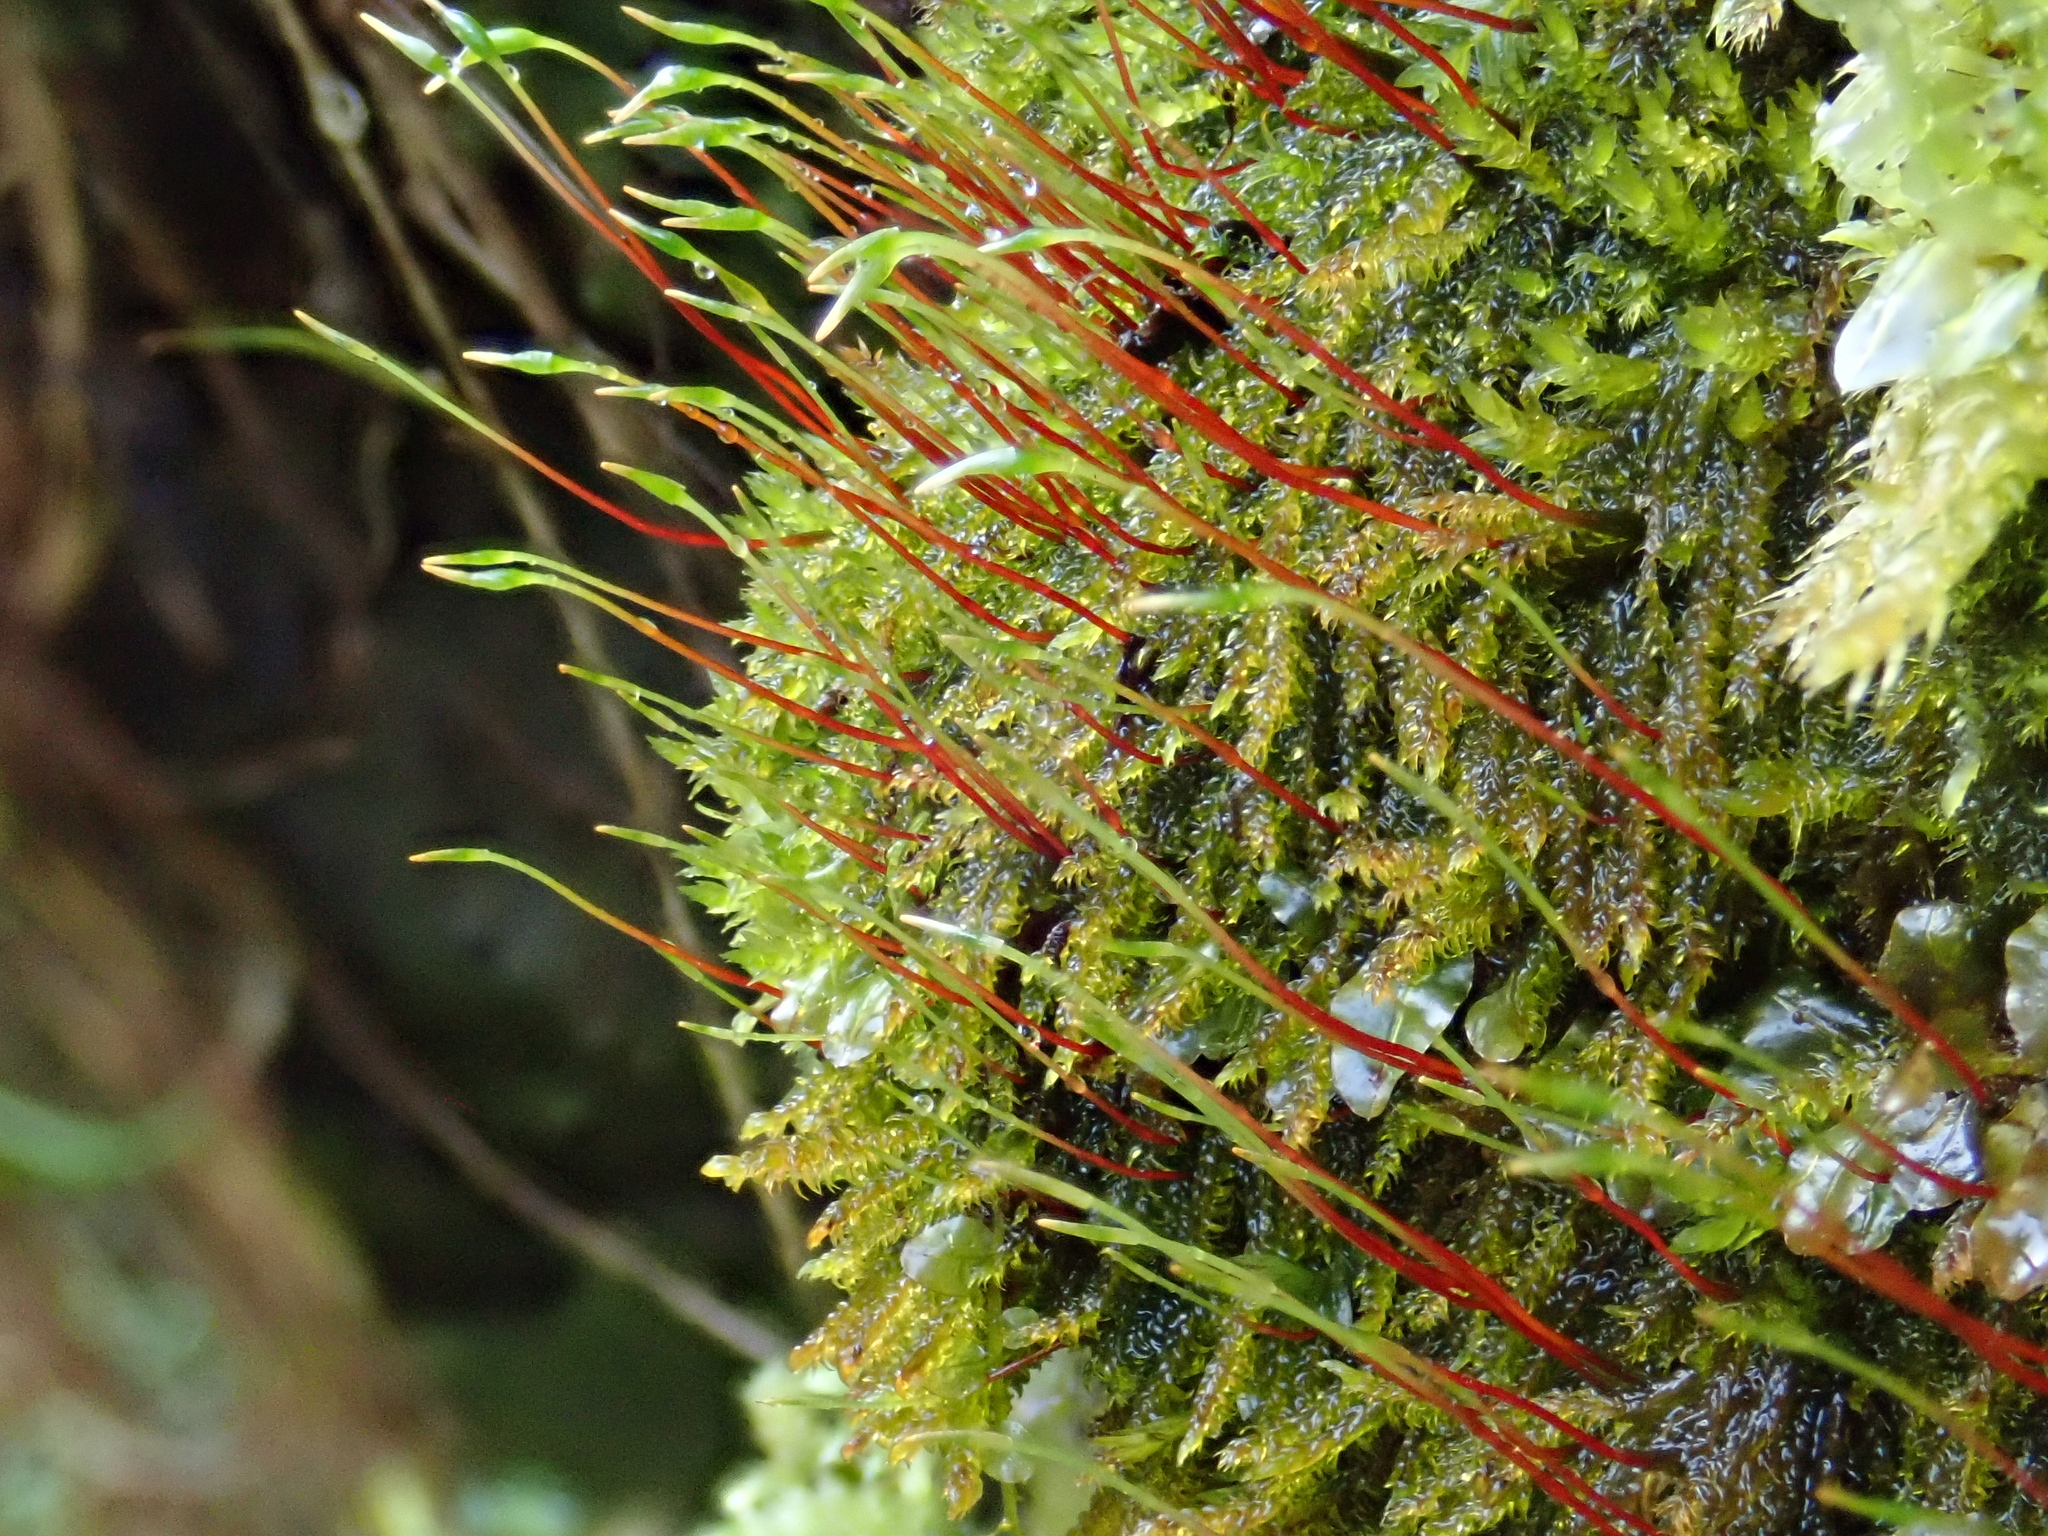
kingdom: Plantae
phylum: Bryophyta
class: Bryopsida
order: Hypnales
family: Amblystegiaceae
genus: Hygrohypnum
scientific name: Hygrohypnum luridum
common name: Drab brook moss
